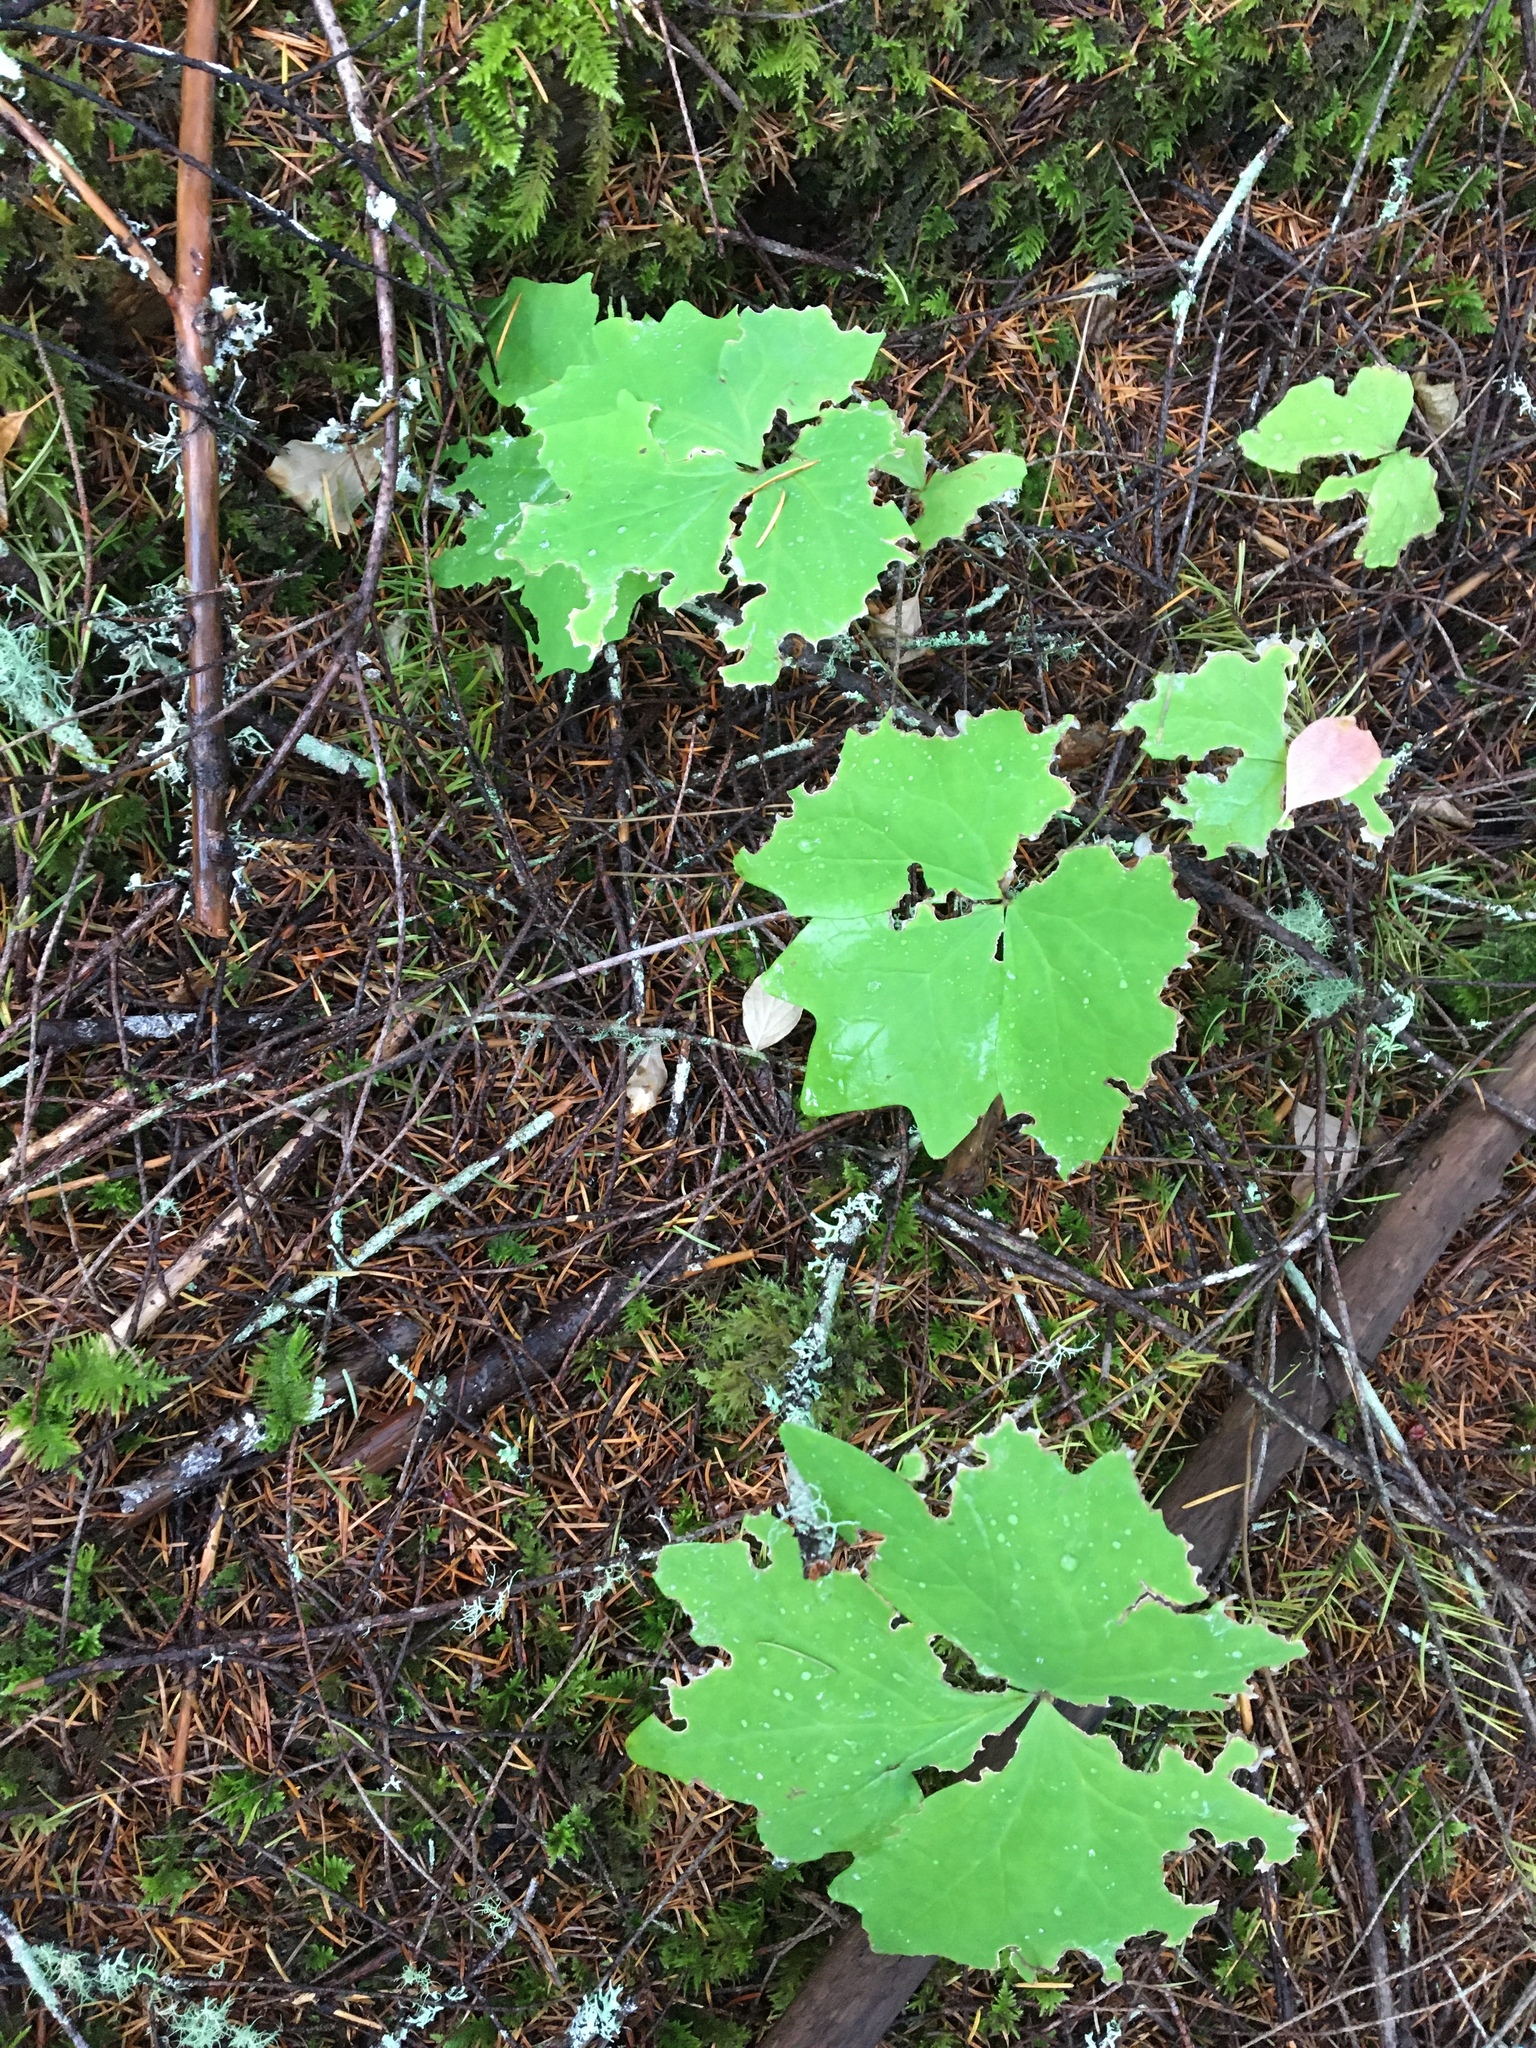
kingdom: Plantae
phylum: Tracheophyta
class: Magnoliopsida
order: Ranunculales
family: Berberidaceae
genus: Achlys
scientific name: Achlys triphylla
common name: Vanilla-leaf
